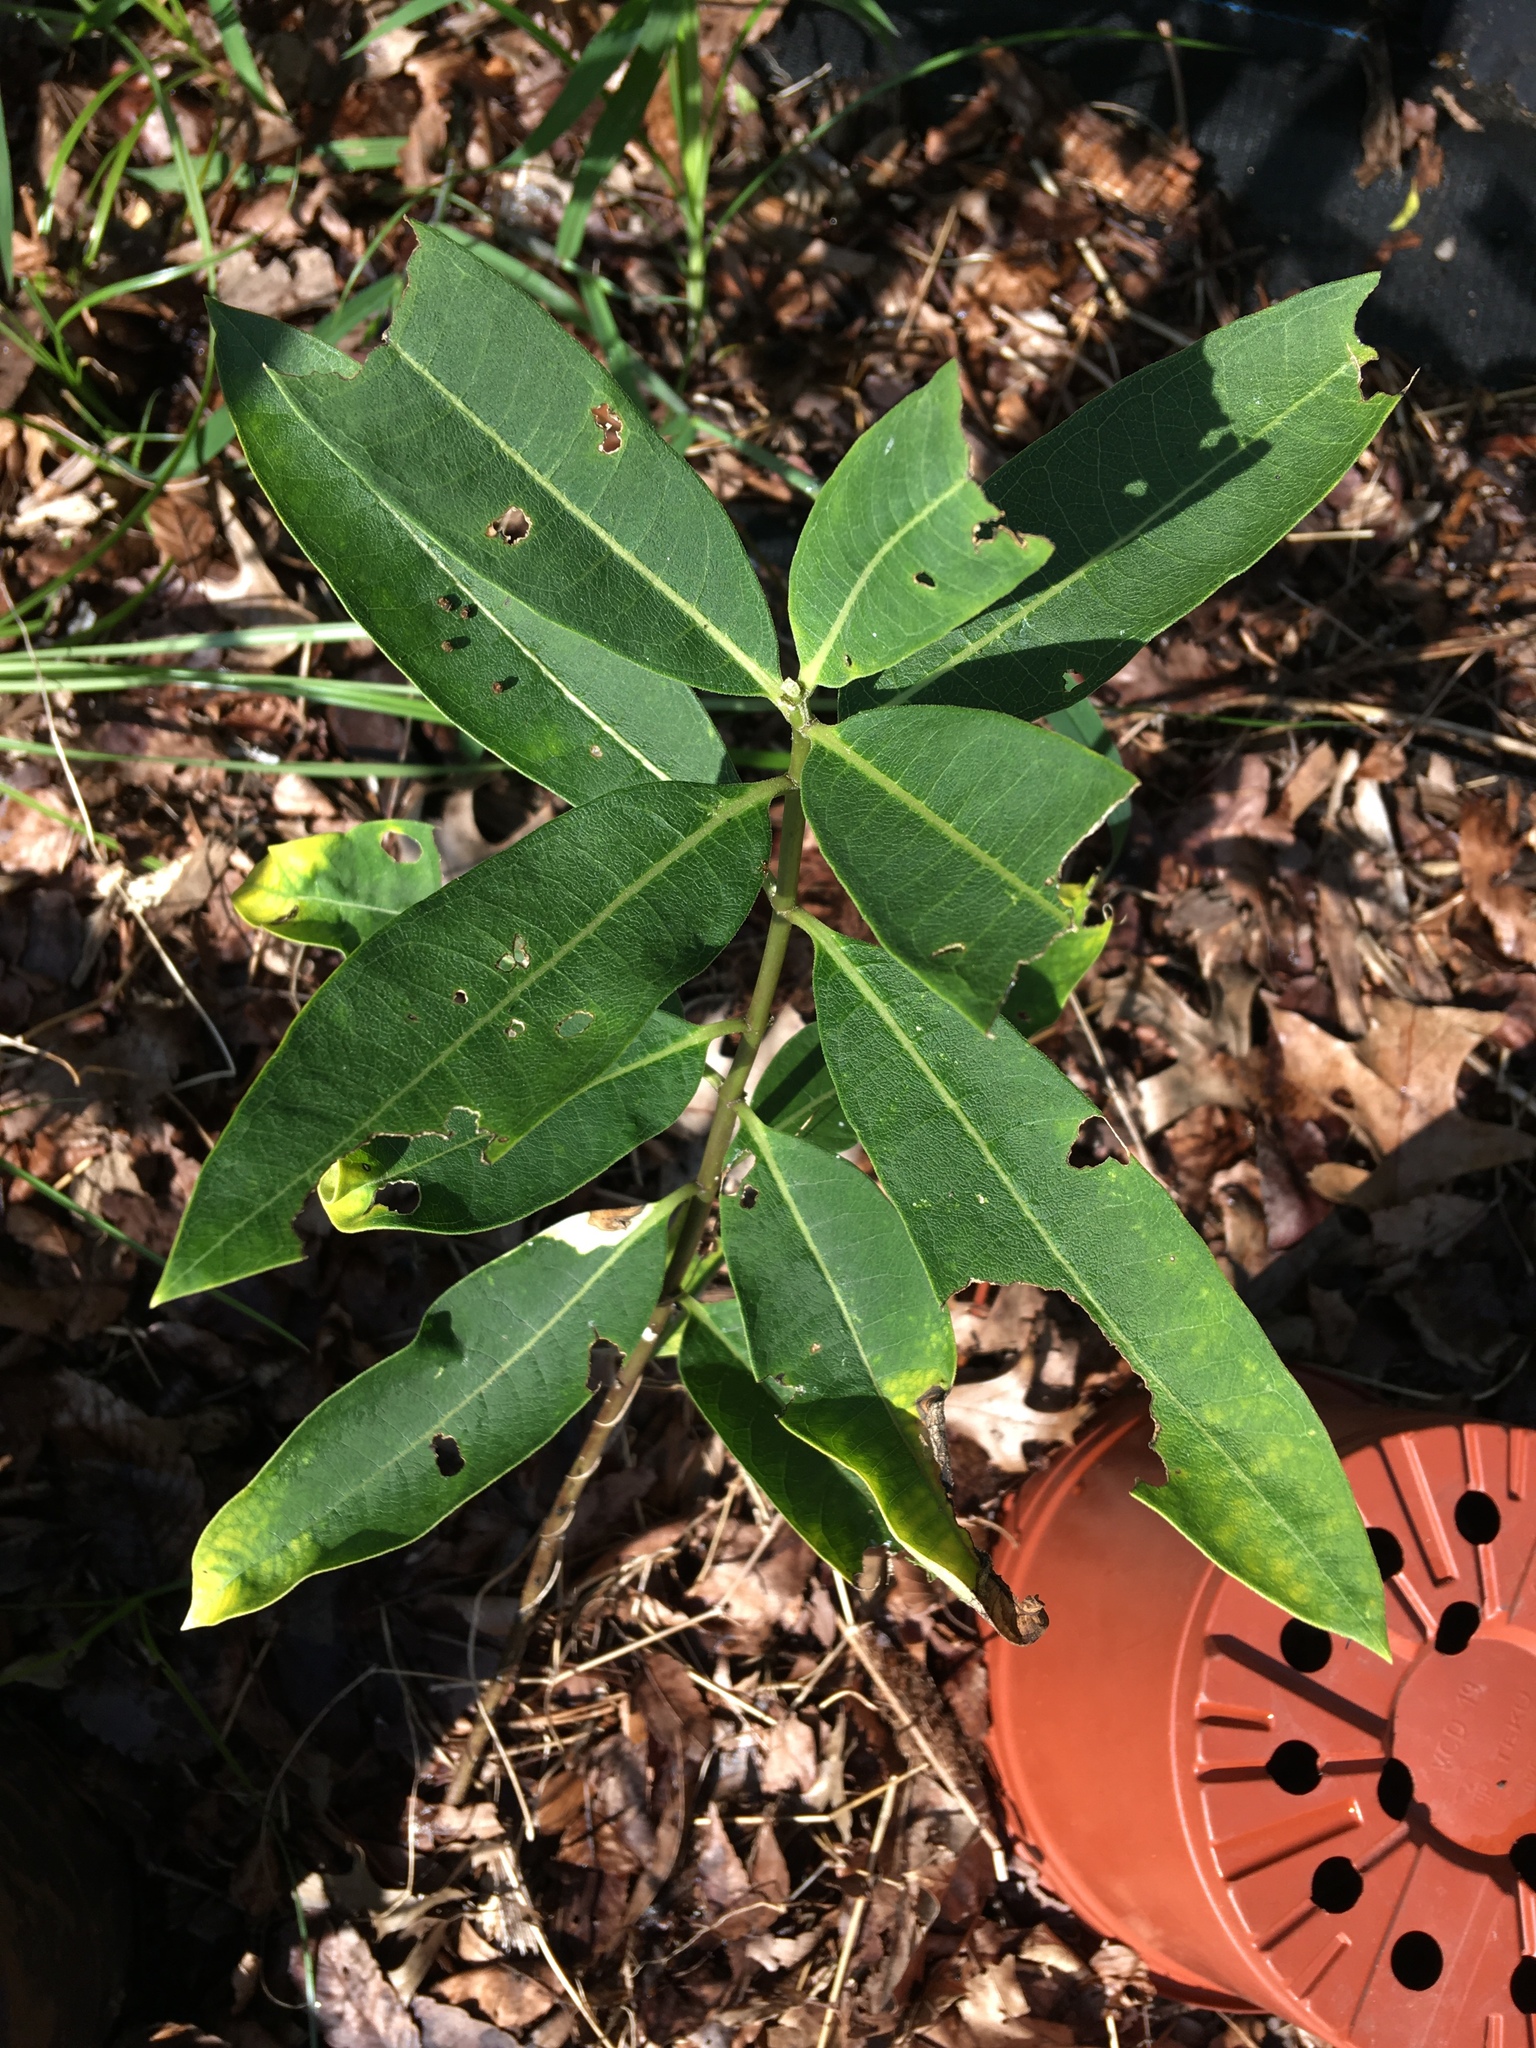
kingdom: Plantae
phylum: Tracheophyta
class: Magnoliopsida
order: Gentianales
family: Apocynaceae
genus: Asclepias
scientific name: Asclepias syriaca
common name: Common milkweed
